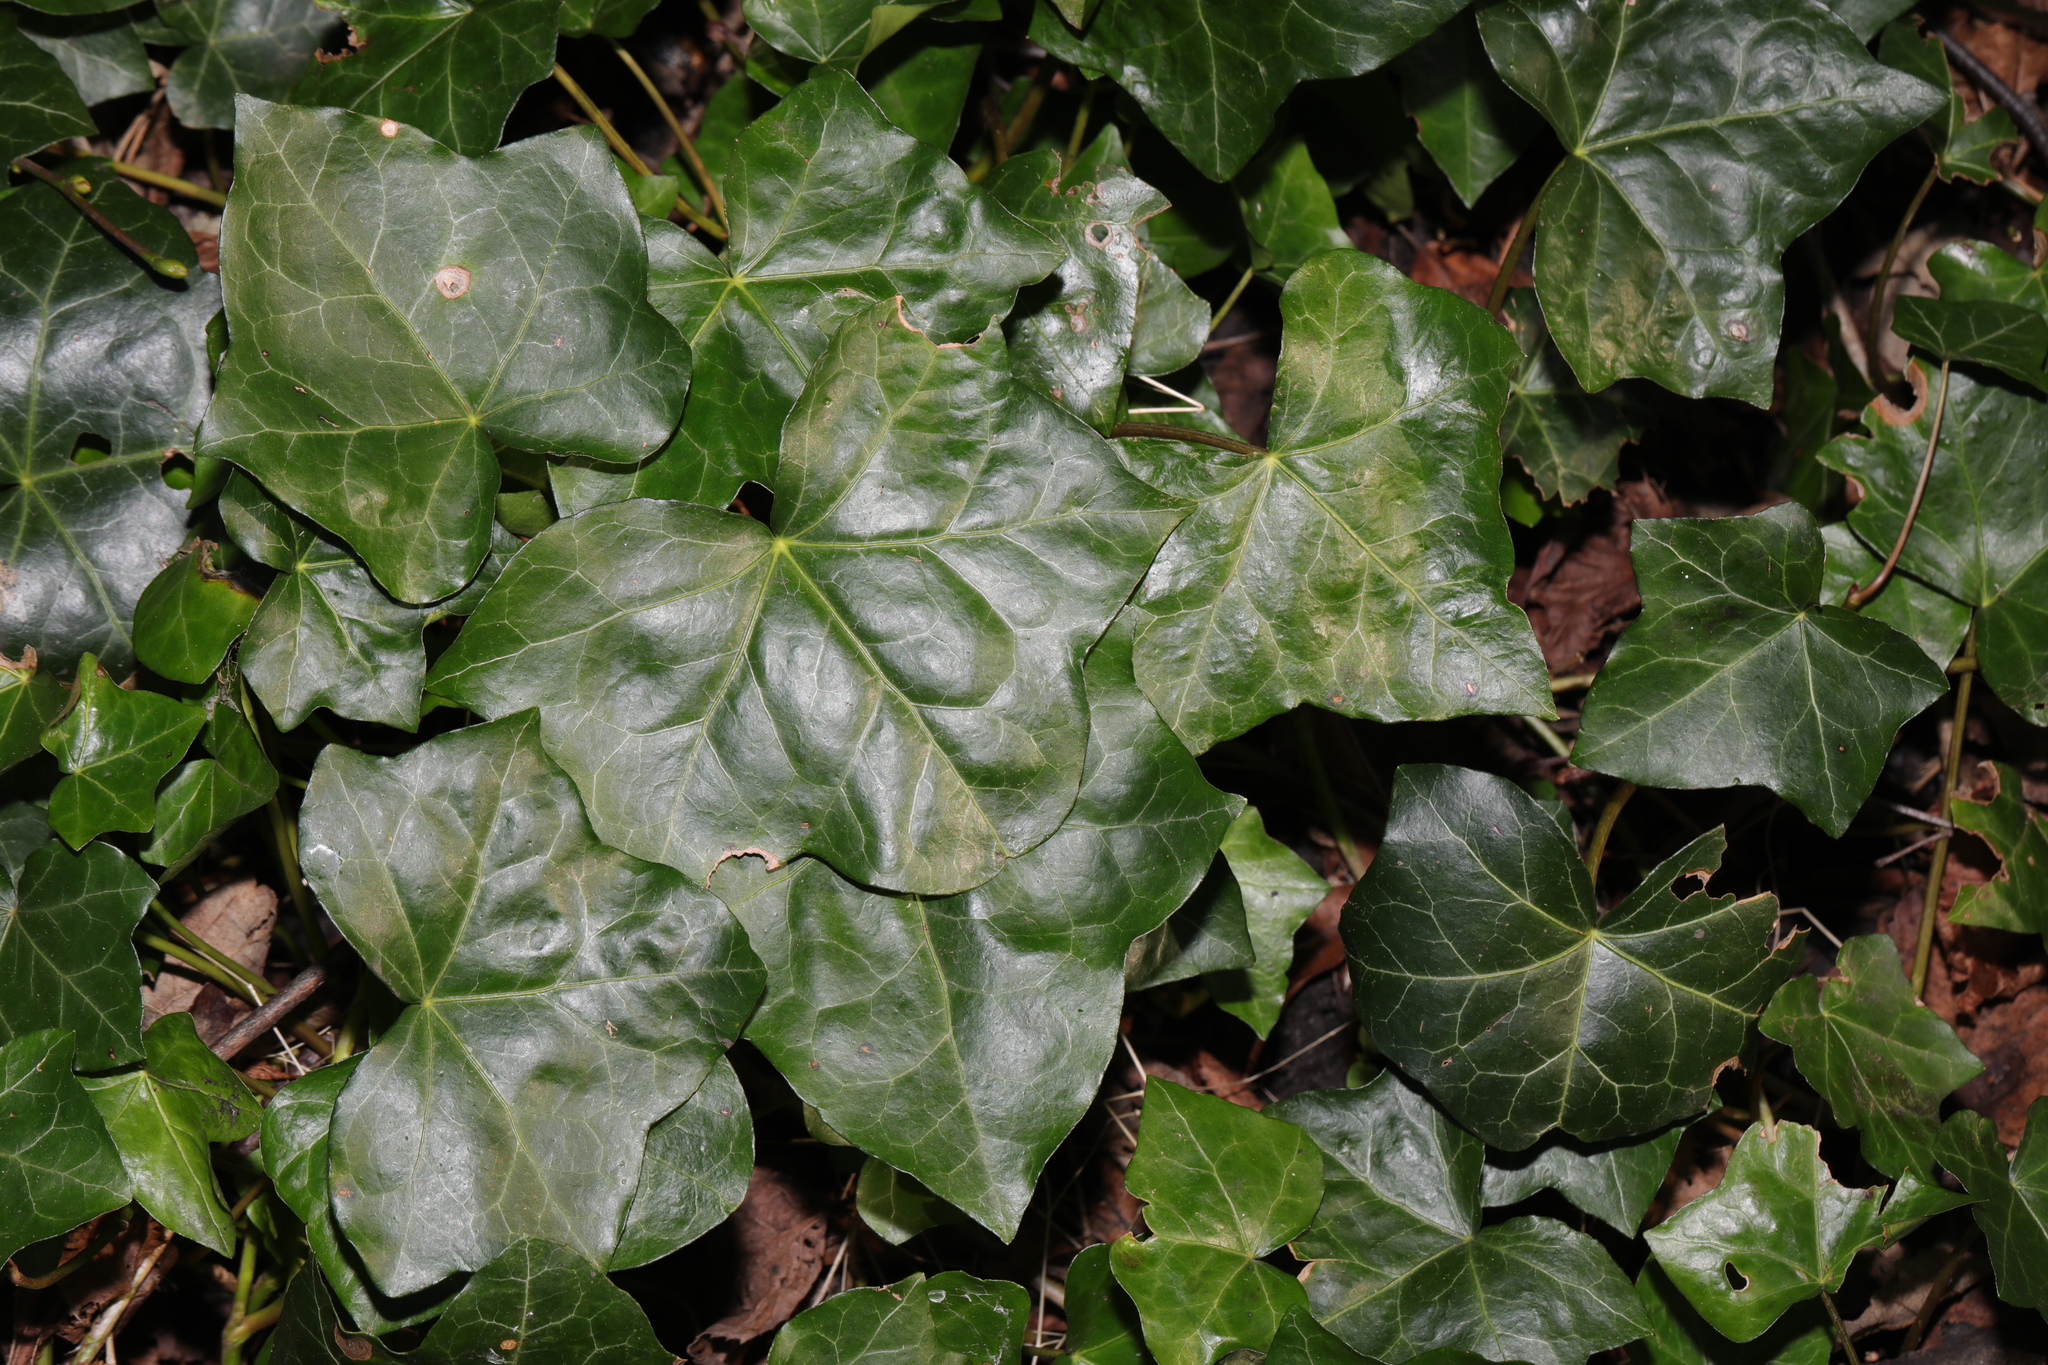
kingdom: Plantae
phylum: Tracheophyta
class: Magnoliopsida
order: Apiales
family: Araliaceae
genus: Hedera
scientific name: Hedera helix
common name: Ivy
